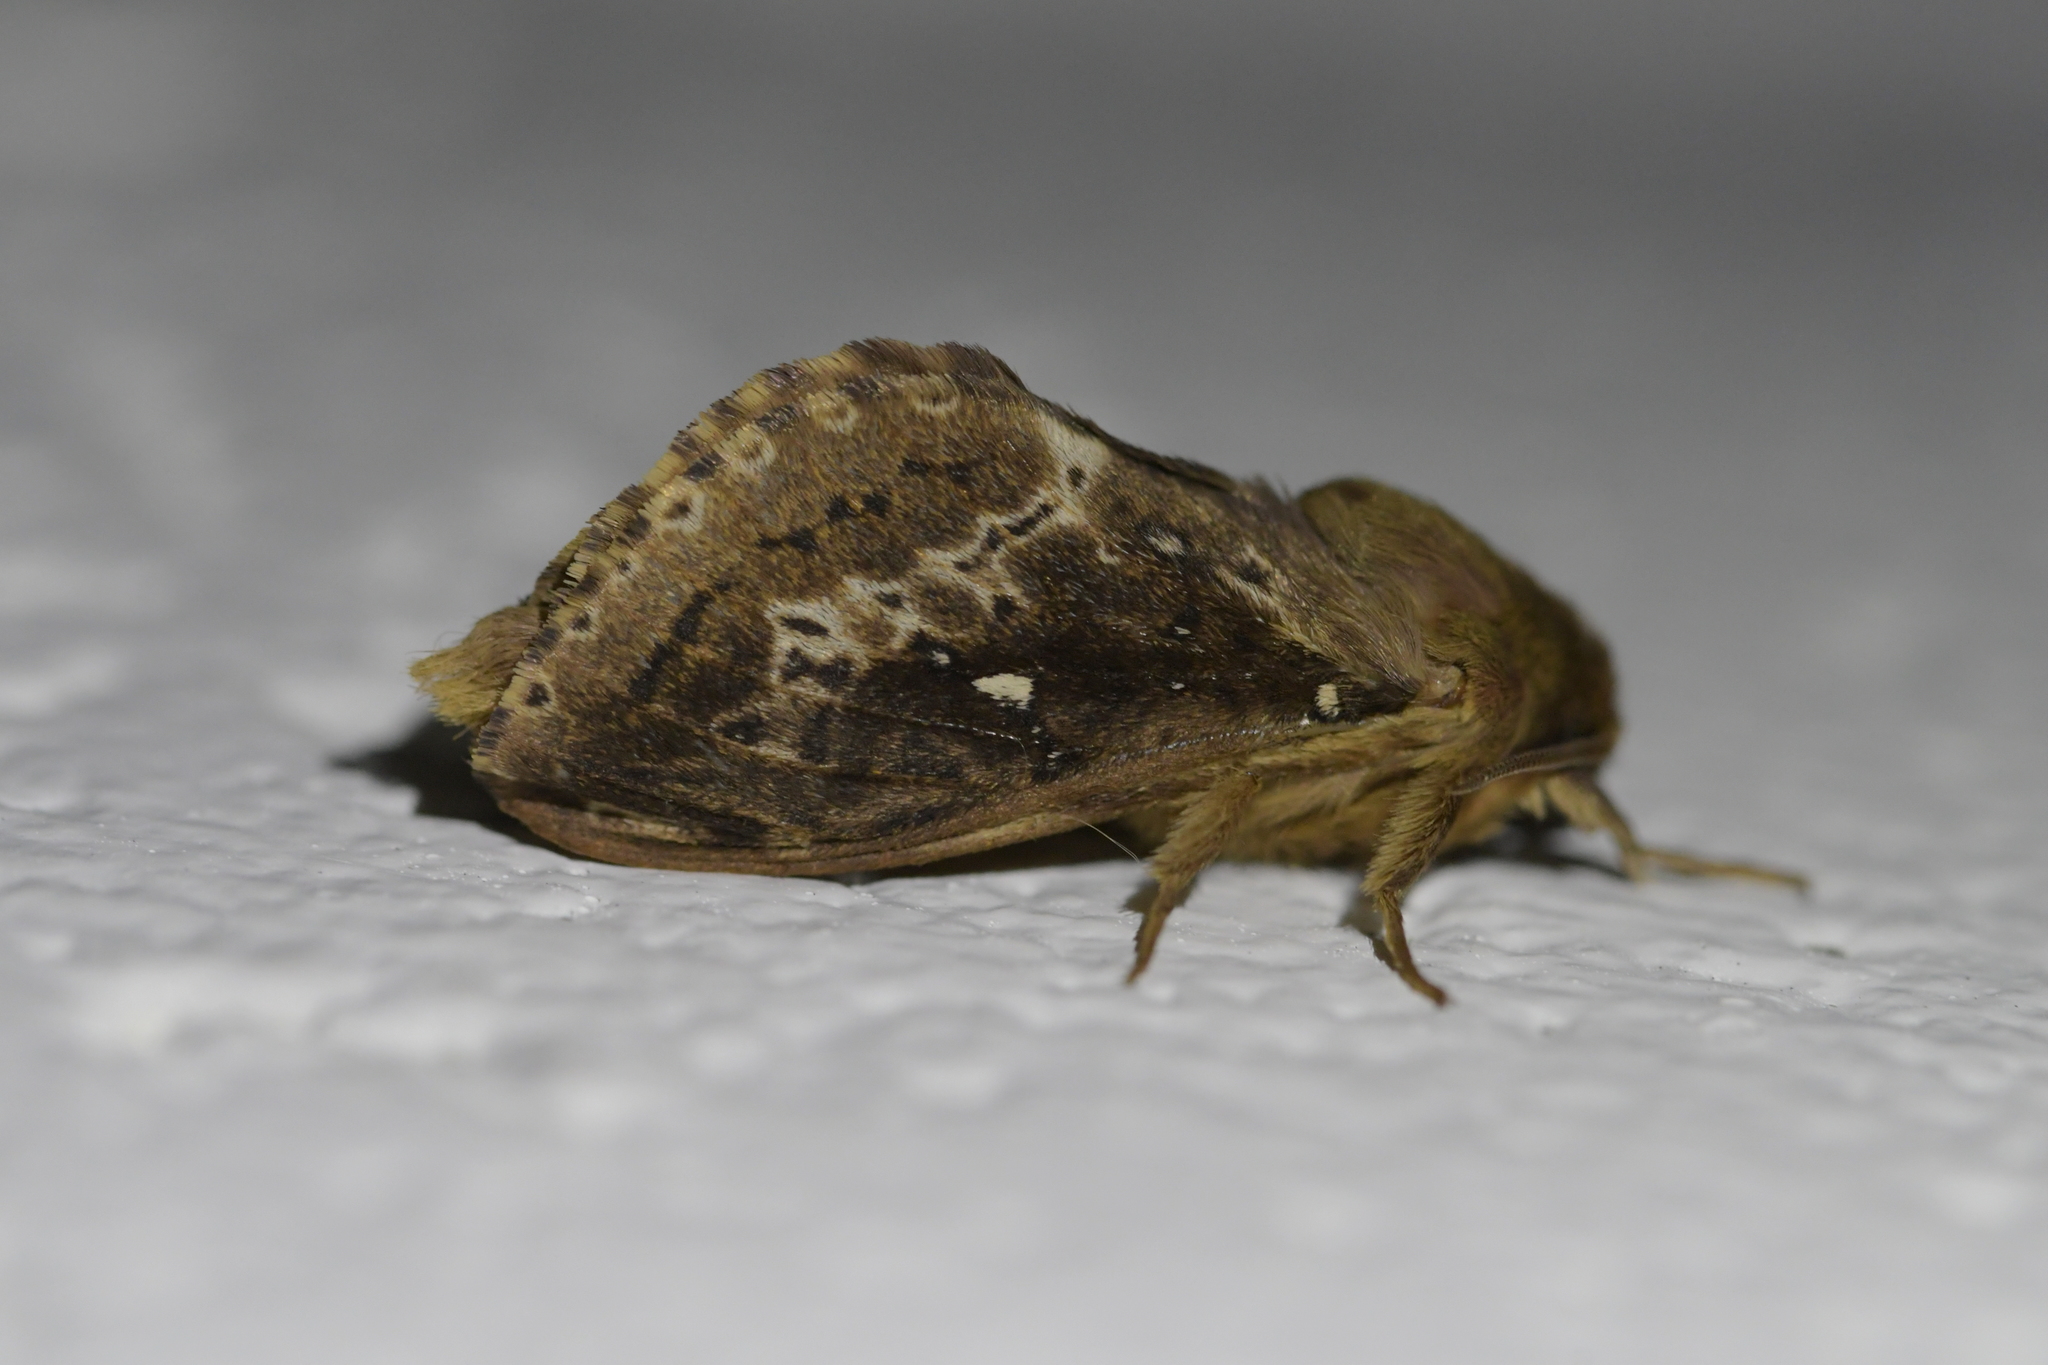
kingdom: Animalia
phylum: Arthropoda
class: Insecta
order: Lepidoptera
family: Hepialidae
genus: Wiseana
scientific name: Wiseana cervinata
